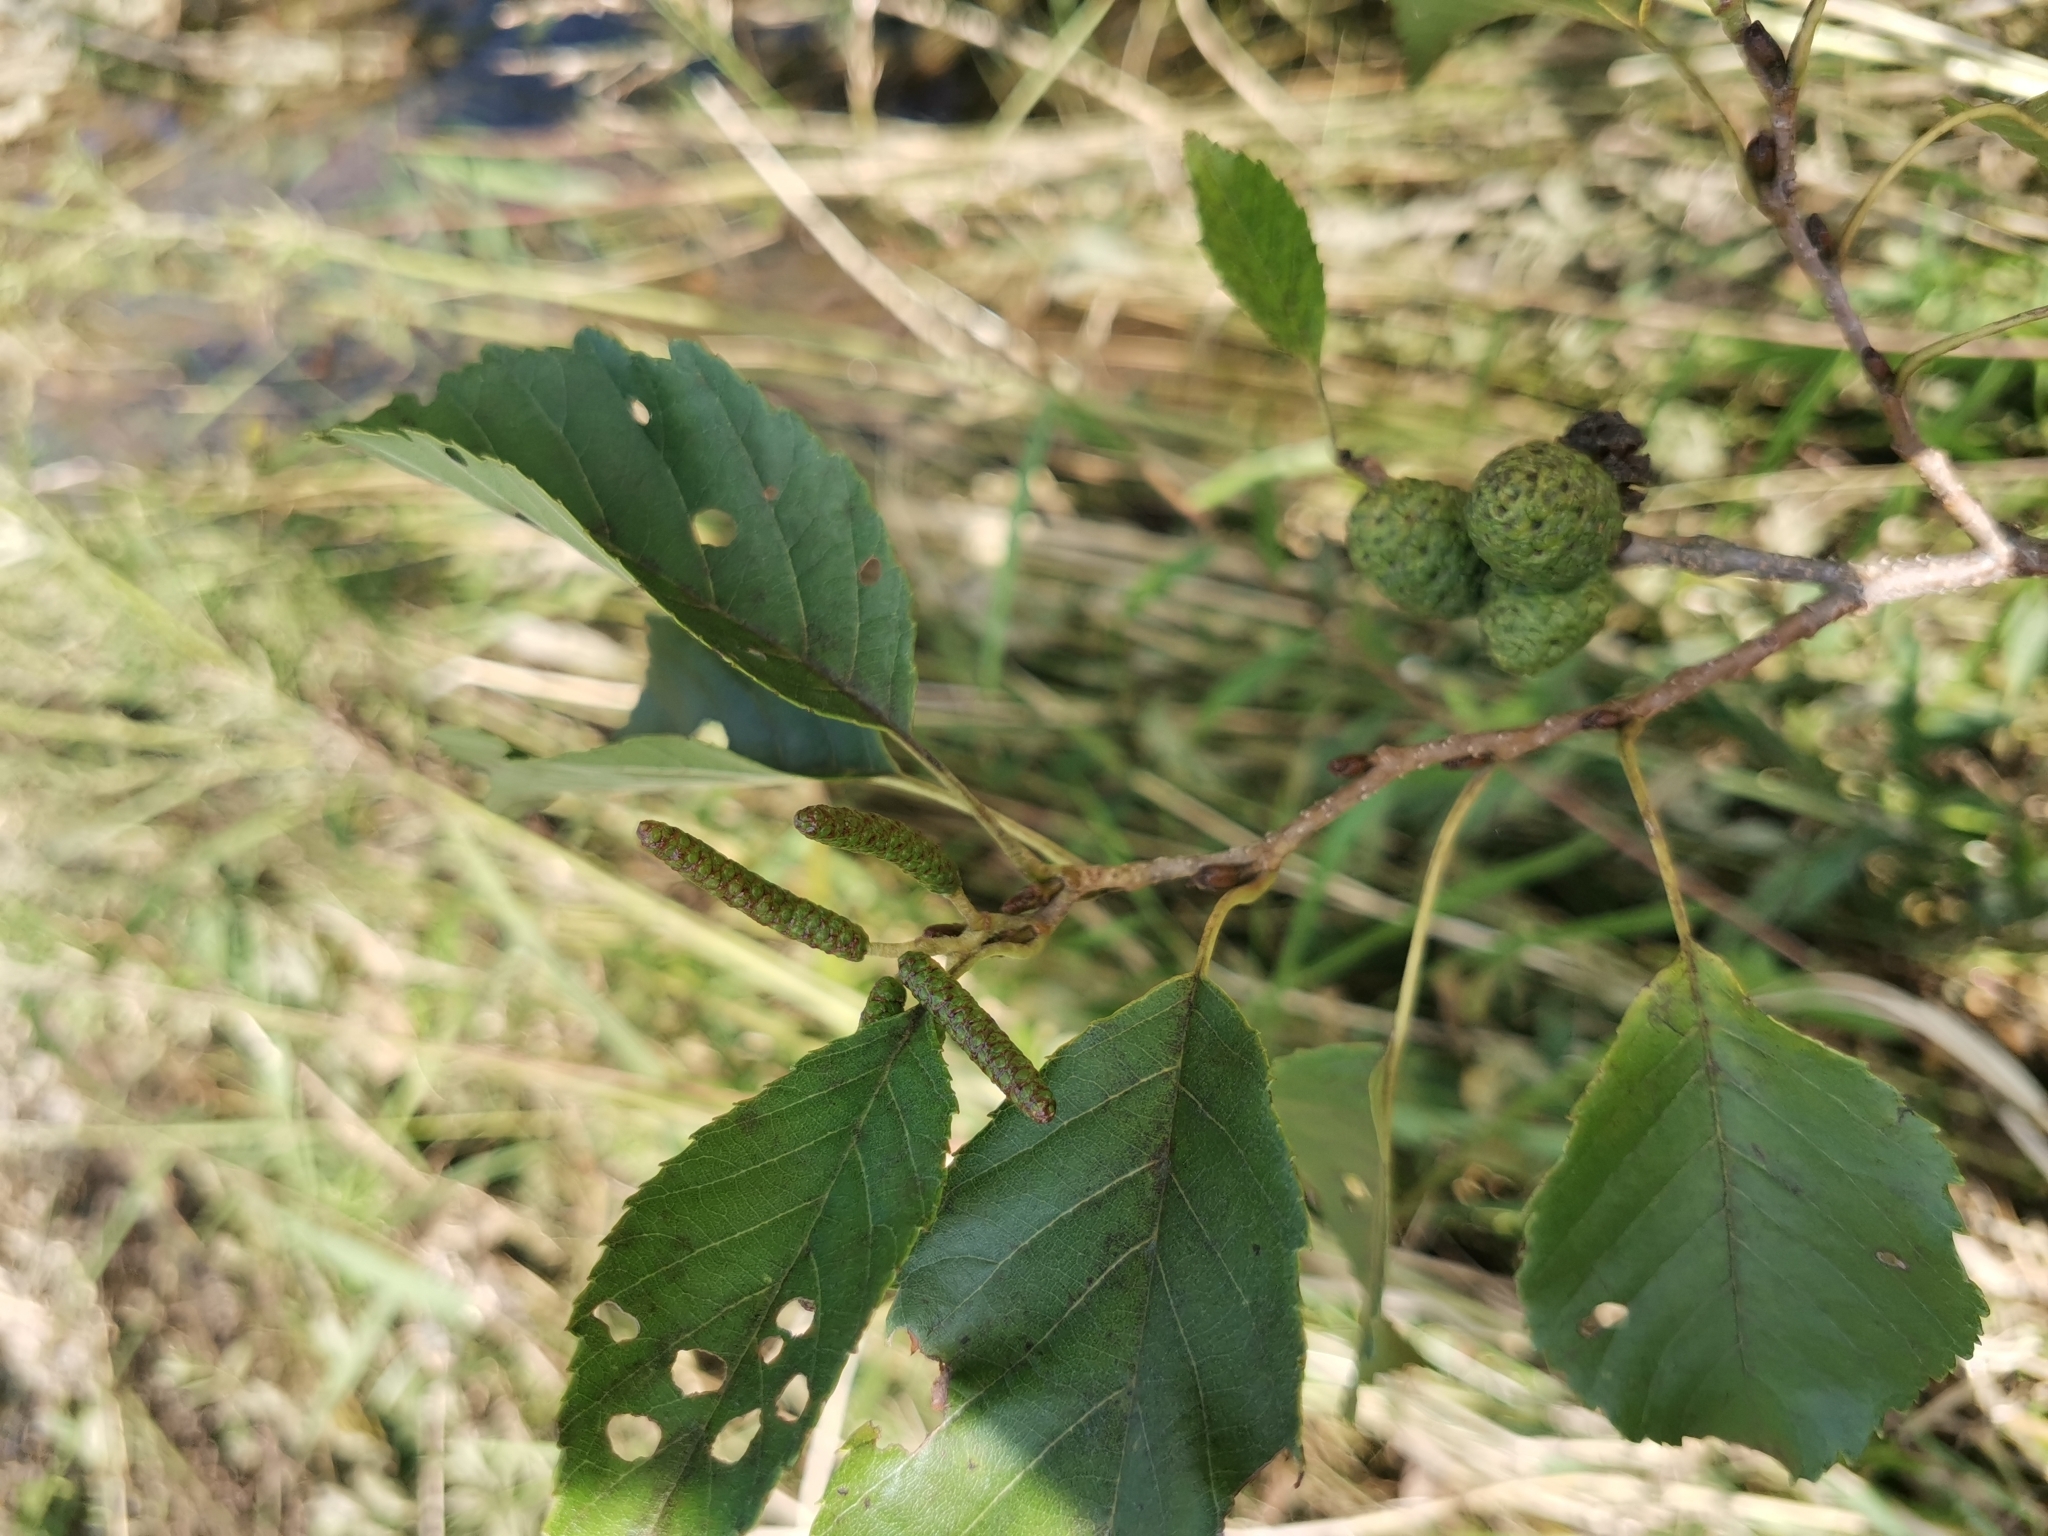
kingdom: Plantae
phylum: Tracheophyta
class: Magnoliopsida
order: Fagales
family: Betulaceae
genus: Alnus
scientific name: Alnus japonica
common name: Japanese alder
